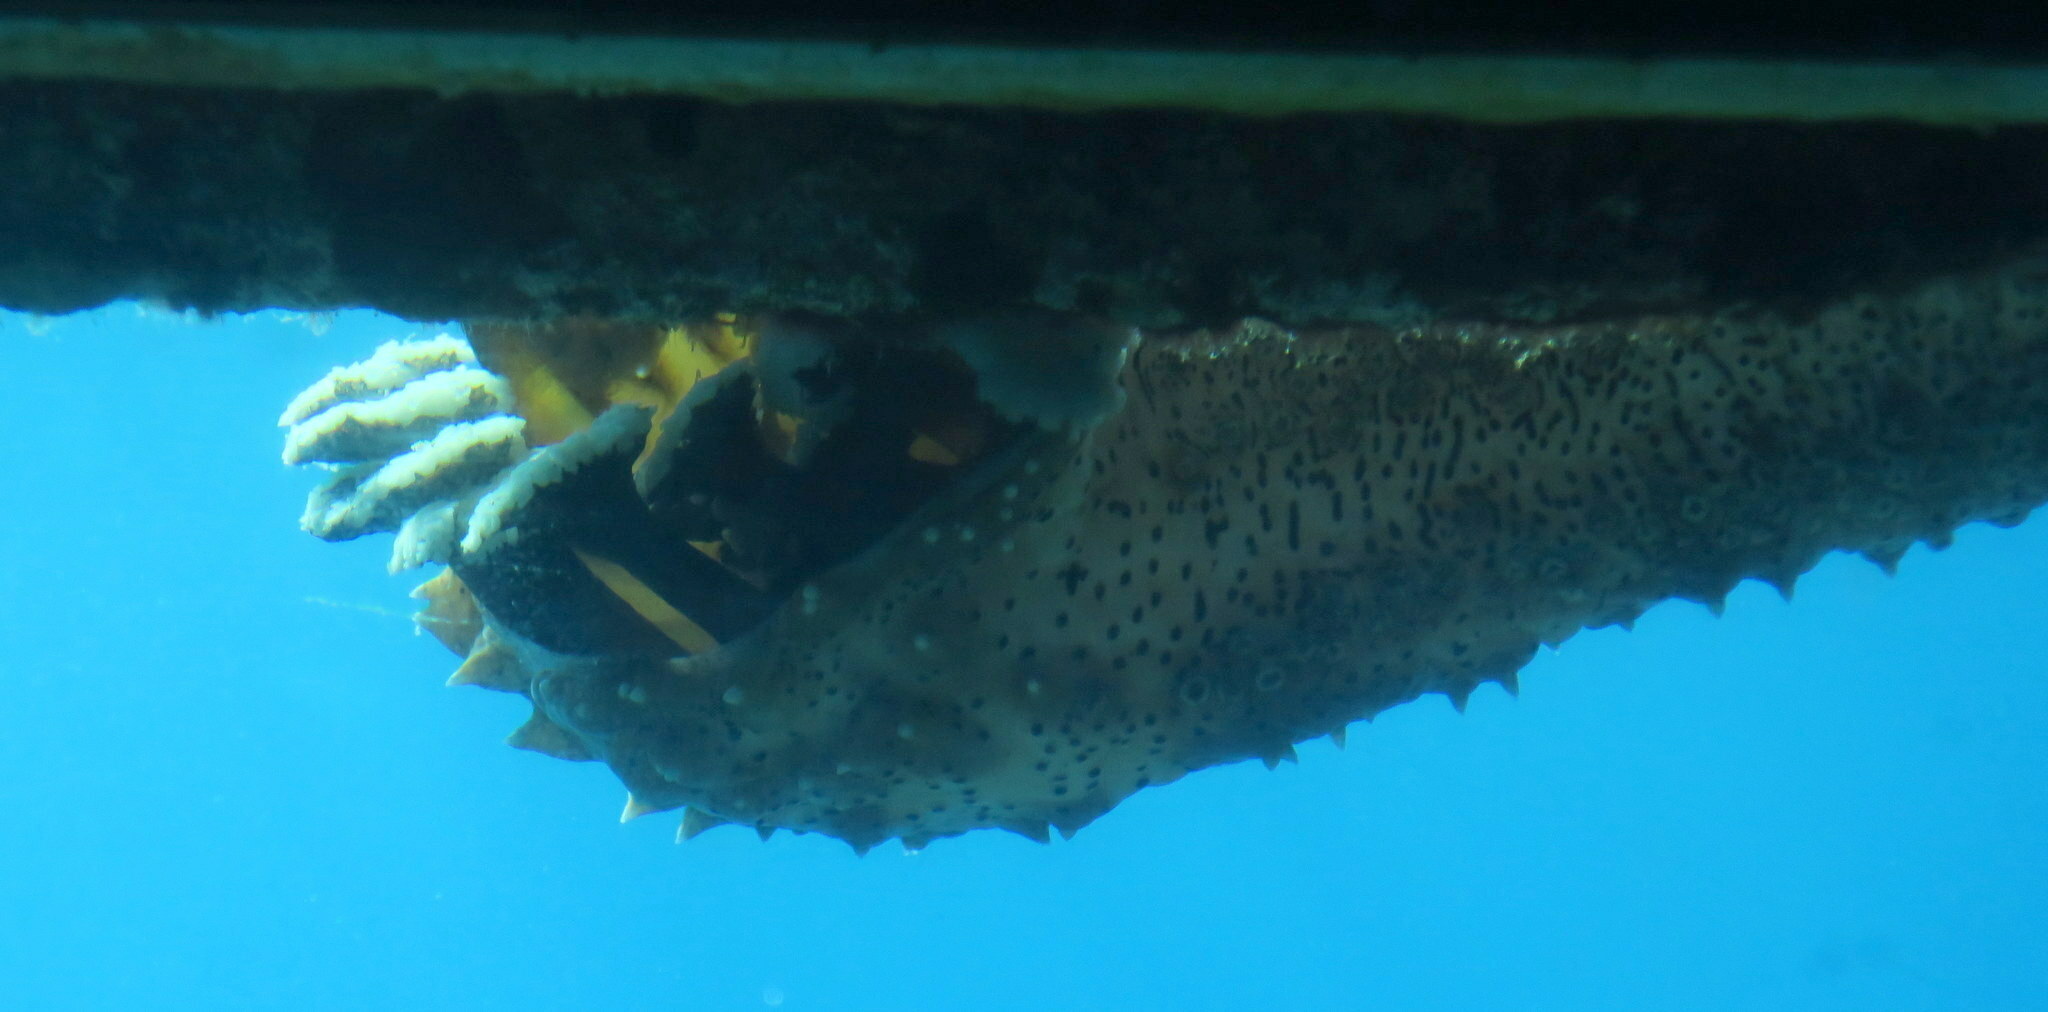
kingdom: Animalia
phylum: Echinodermata
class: Holothuroidea
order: Holothuriida
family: Holothuriidae
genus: Pearsonothuria
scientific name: Pearsonothuria graeffei
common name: Blackspotted sea cucumber
